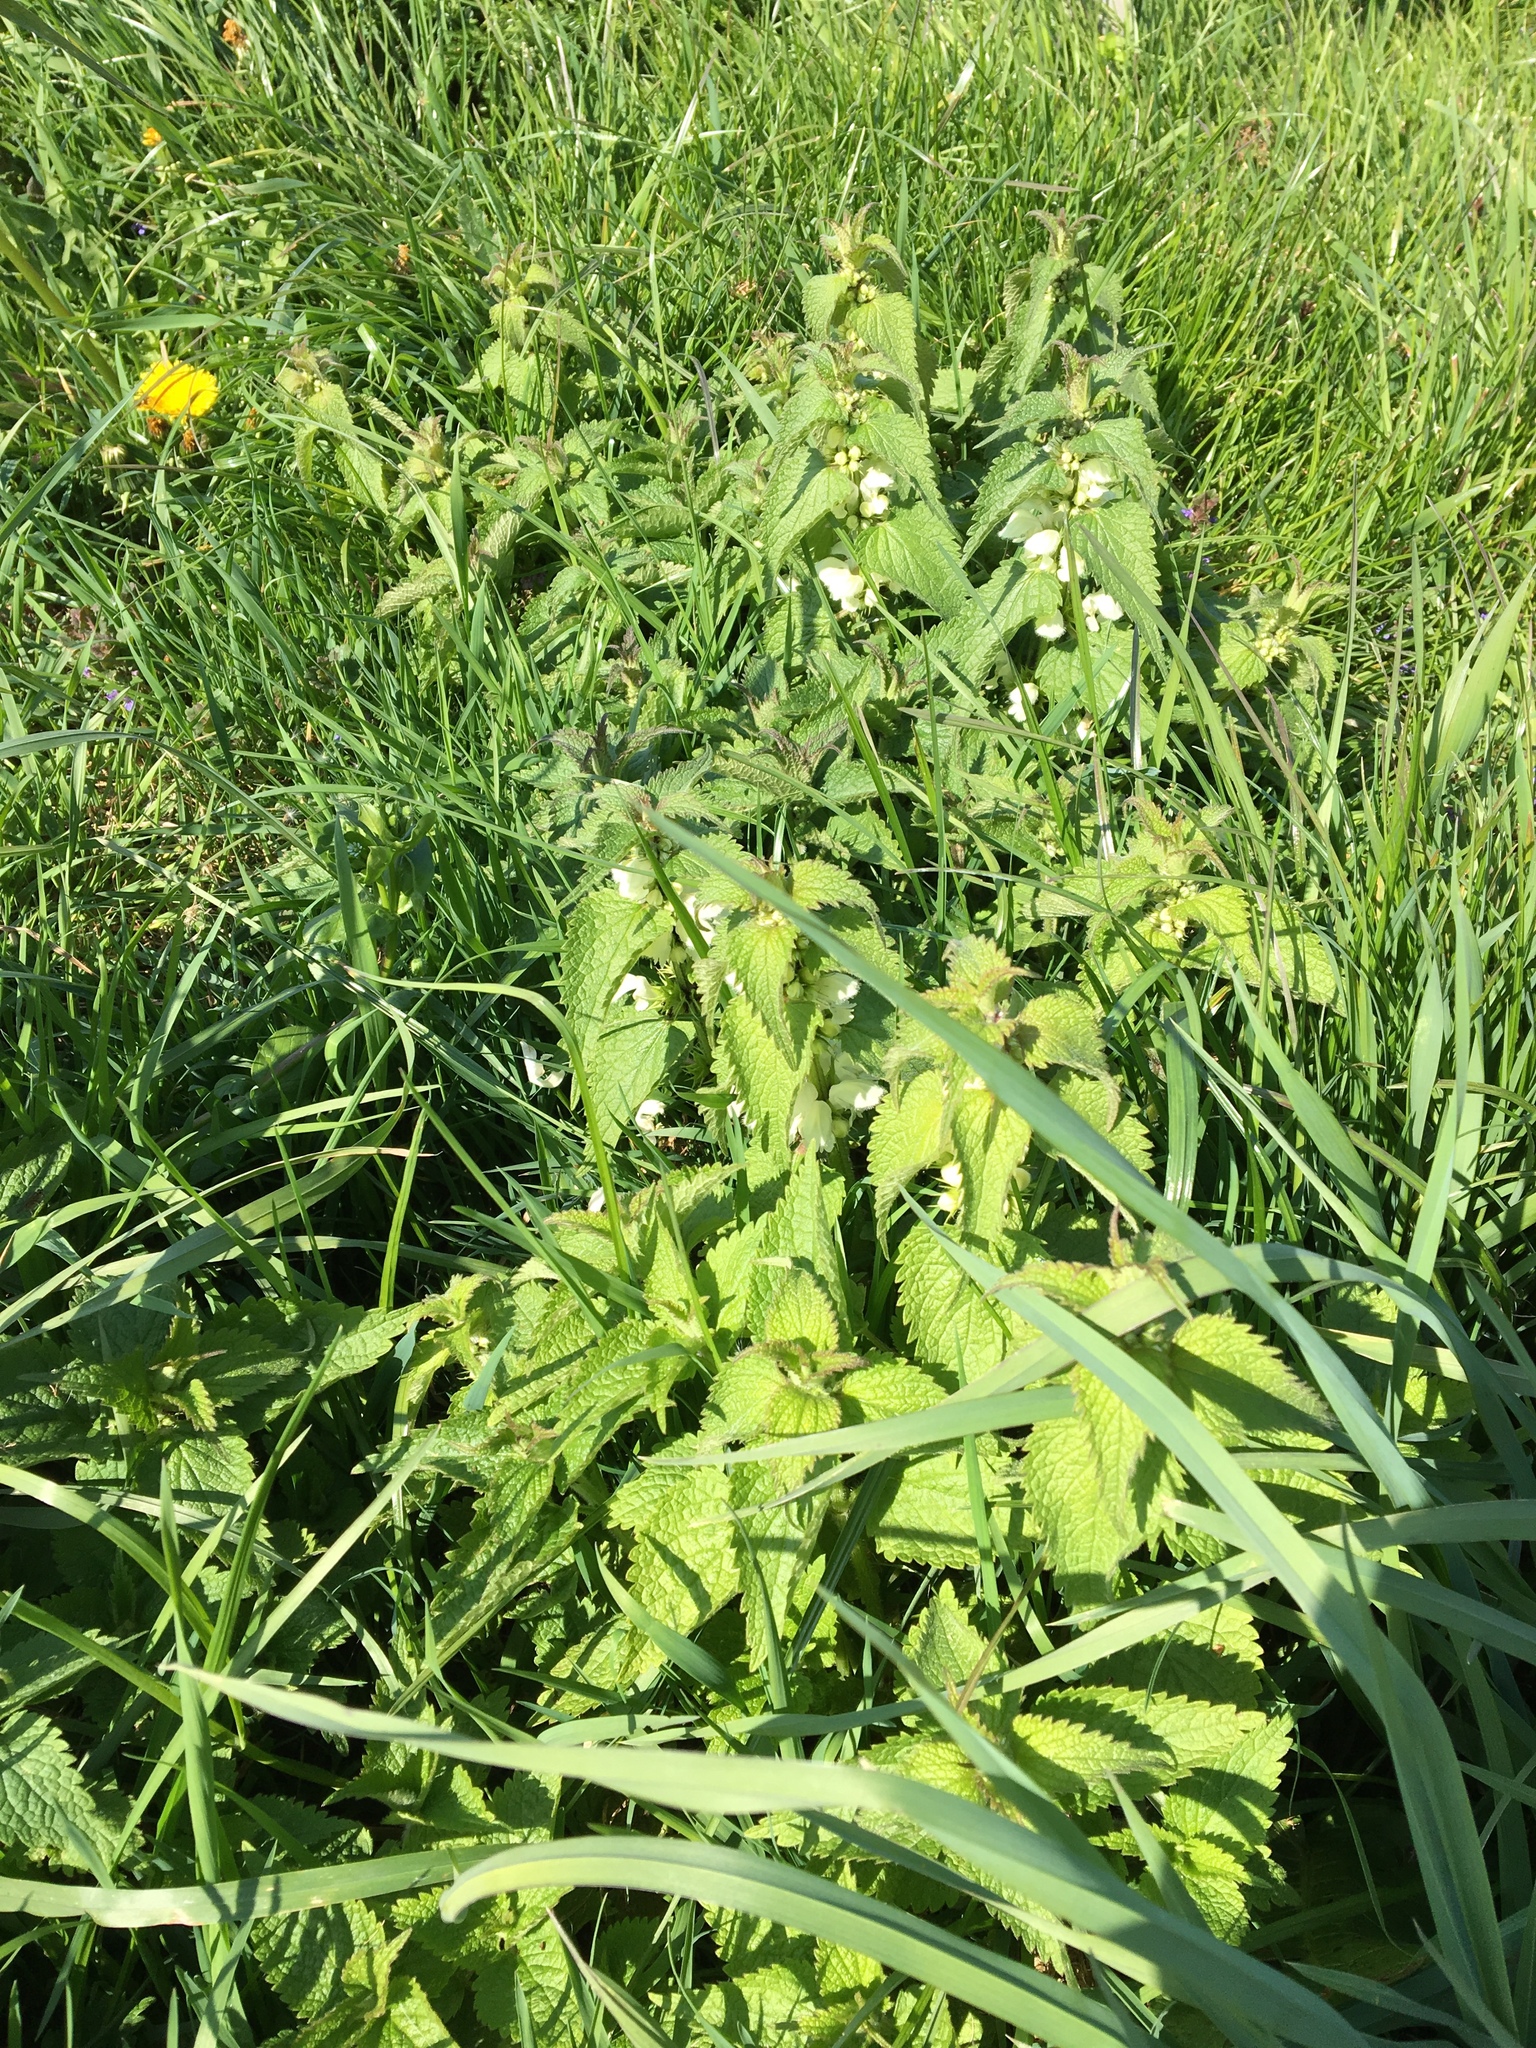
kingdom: Plantae
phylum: Tracheophyta
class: Magnoliopsida
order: Lamiales
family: Lamiaceae
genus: Lamium
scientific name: Lamium album
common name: White dead-nettle
